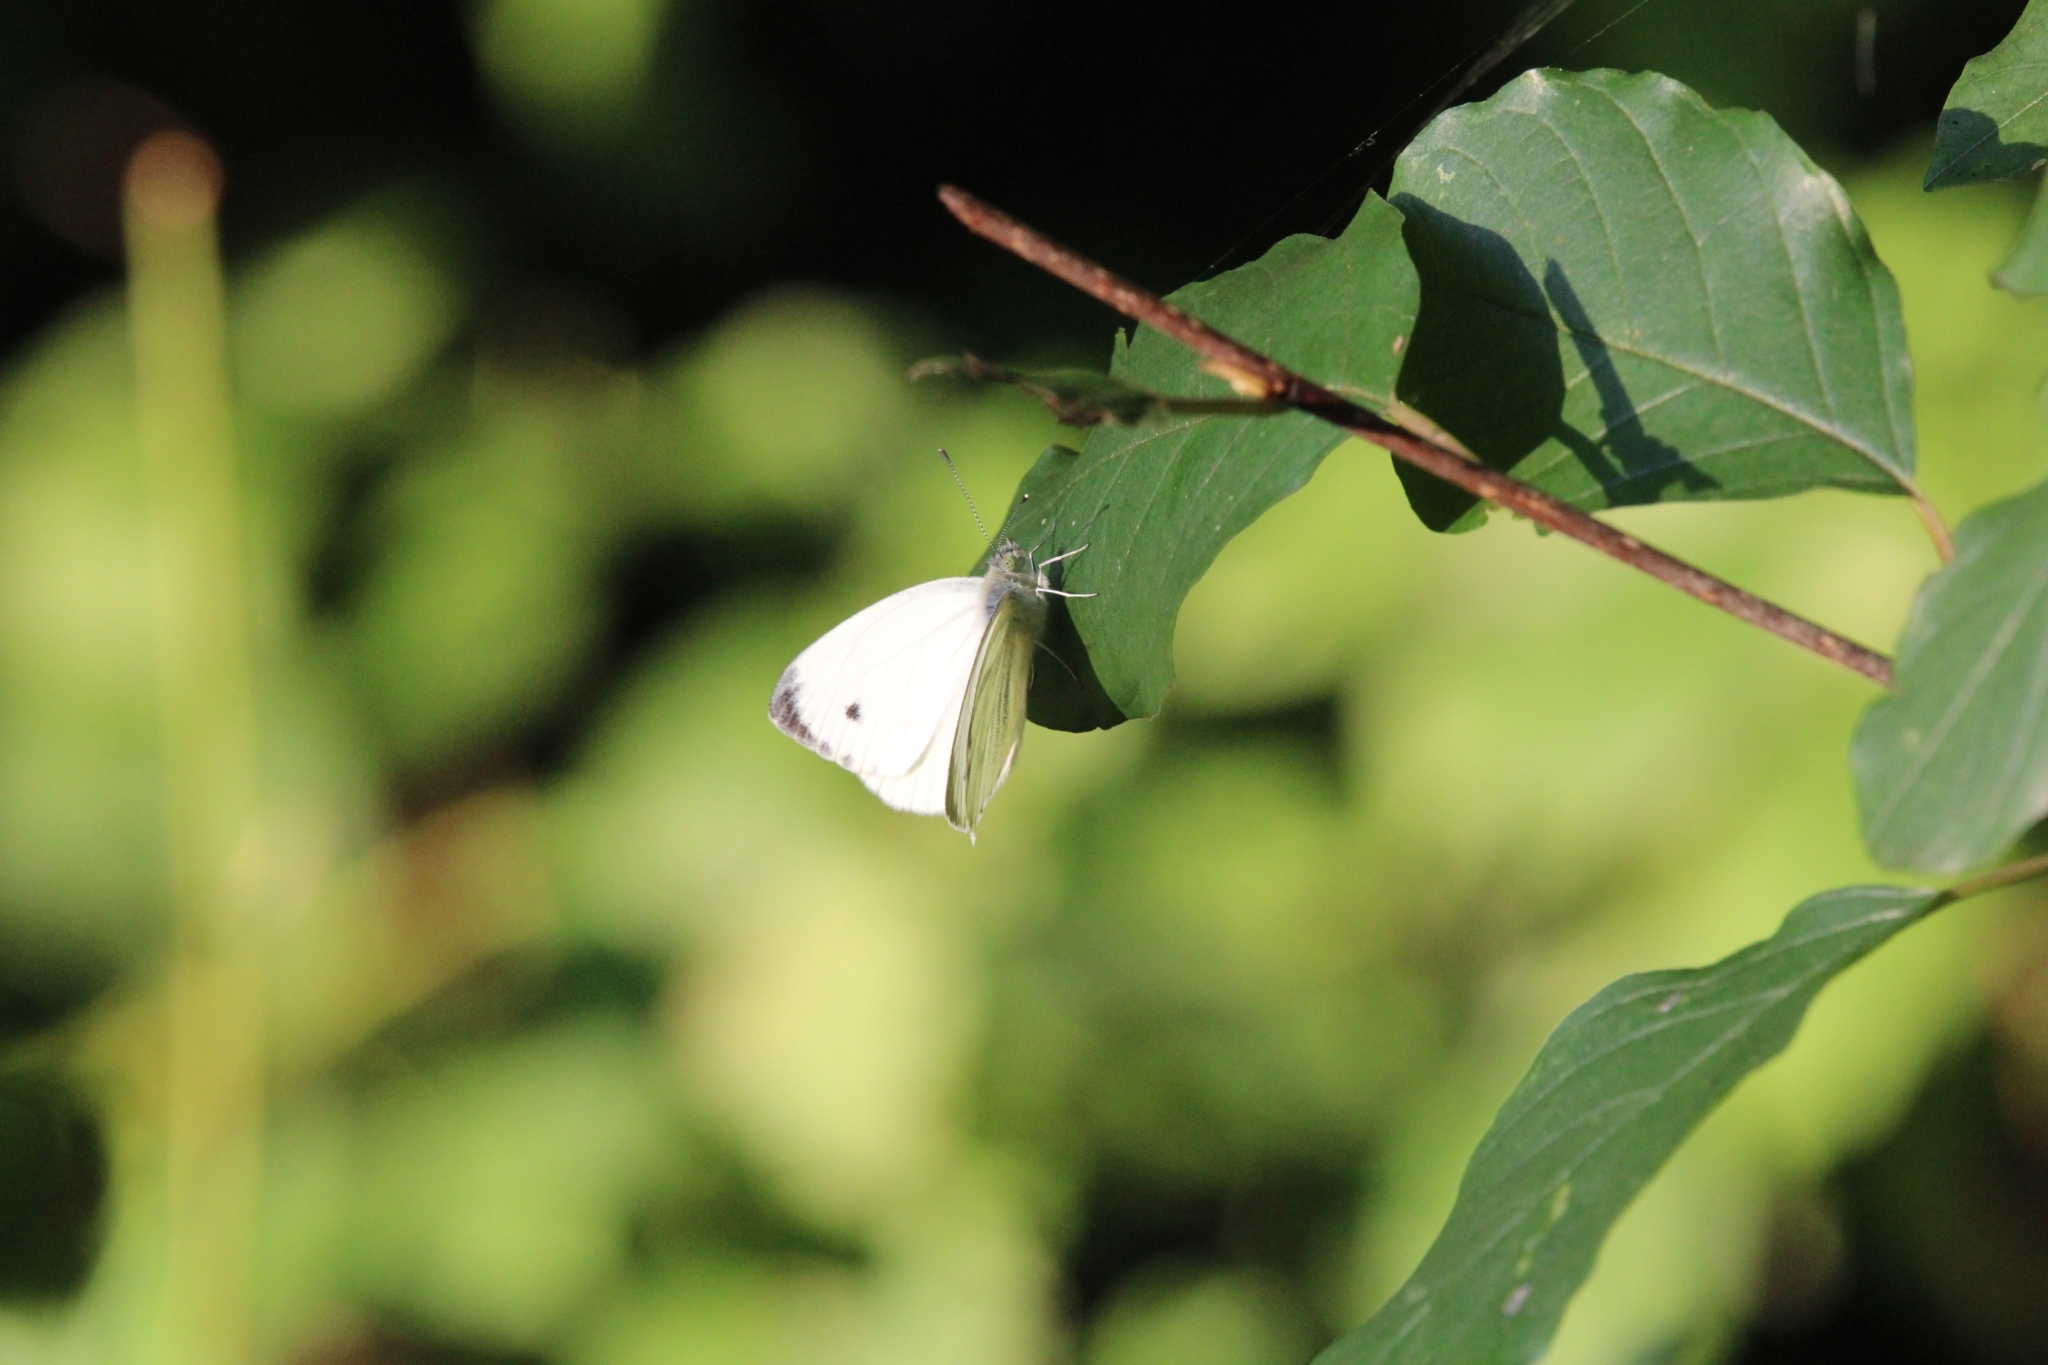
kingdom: Animalia
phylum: Arthropoda
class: Insecta
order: Lepidoptera
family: Pieridae
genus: Pieris
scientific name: Pieris napi
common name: Green-veined white
